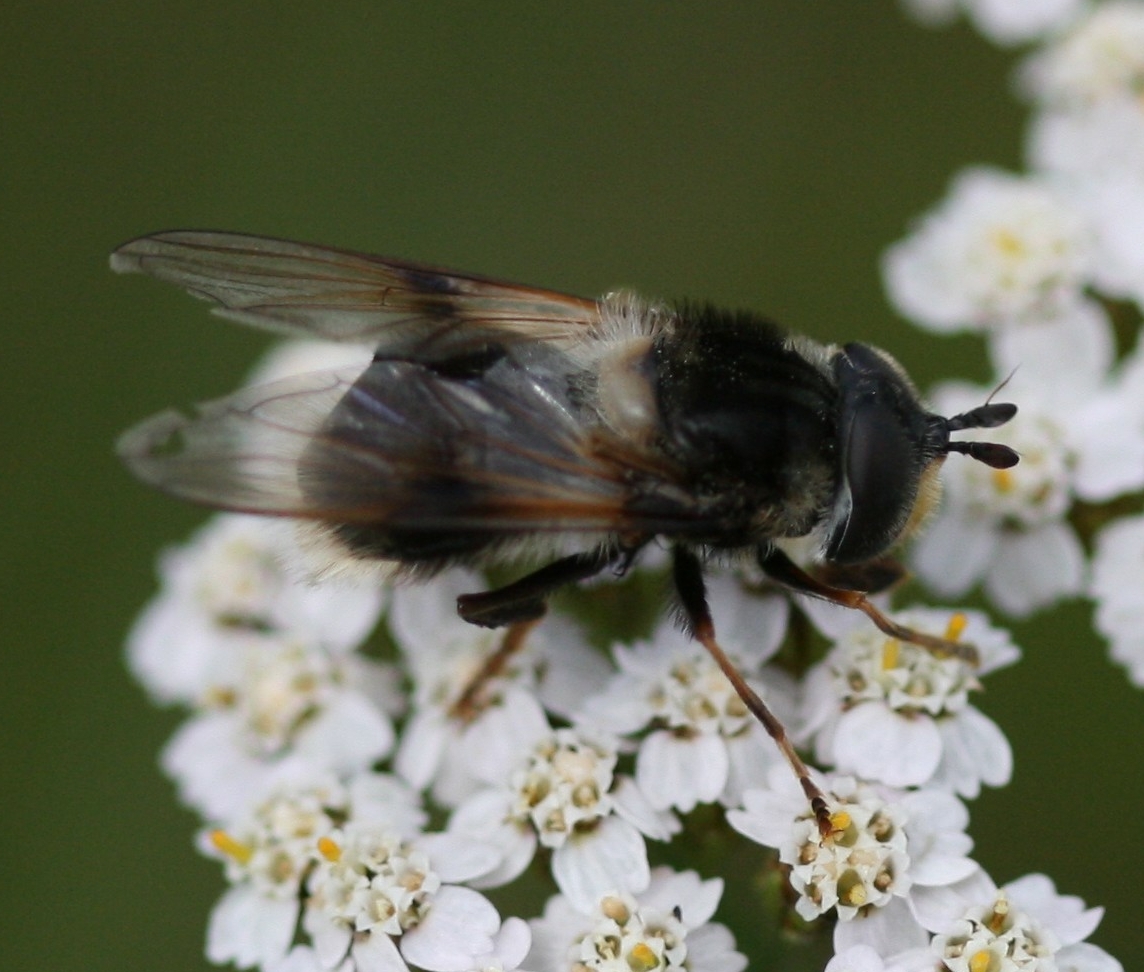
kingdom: Animalia
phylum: Arthropoda
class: Insecta
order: Diptera
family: Syrphidae
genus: Eriozona
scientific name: Eriozona syrphoides
